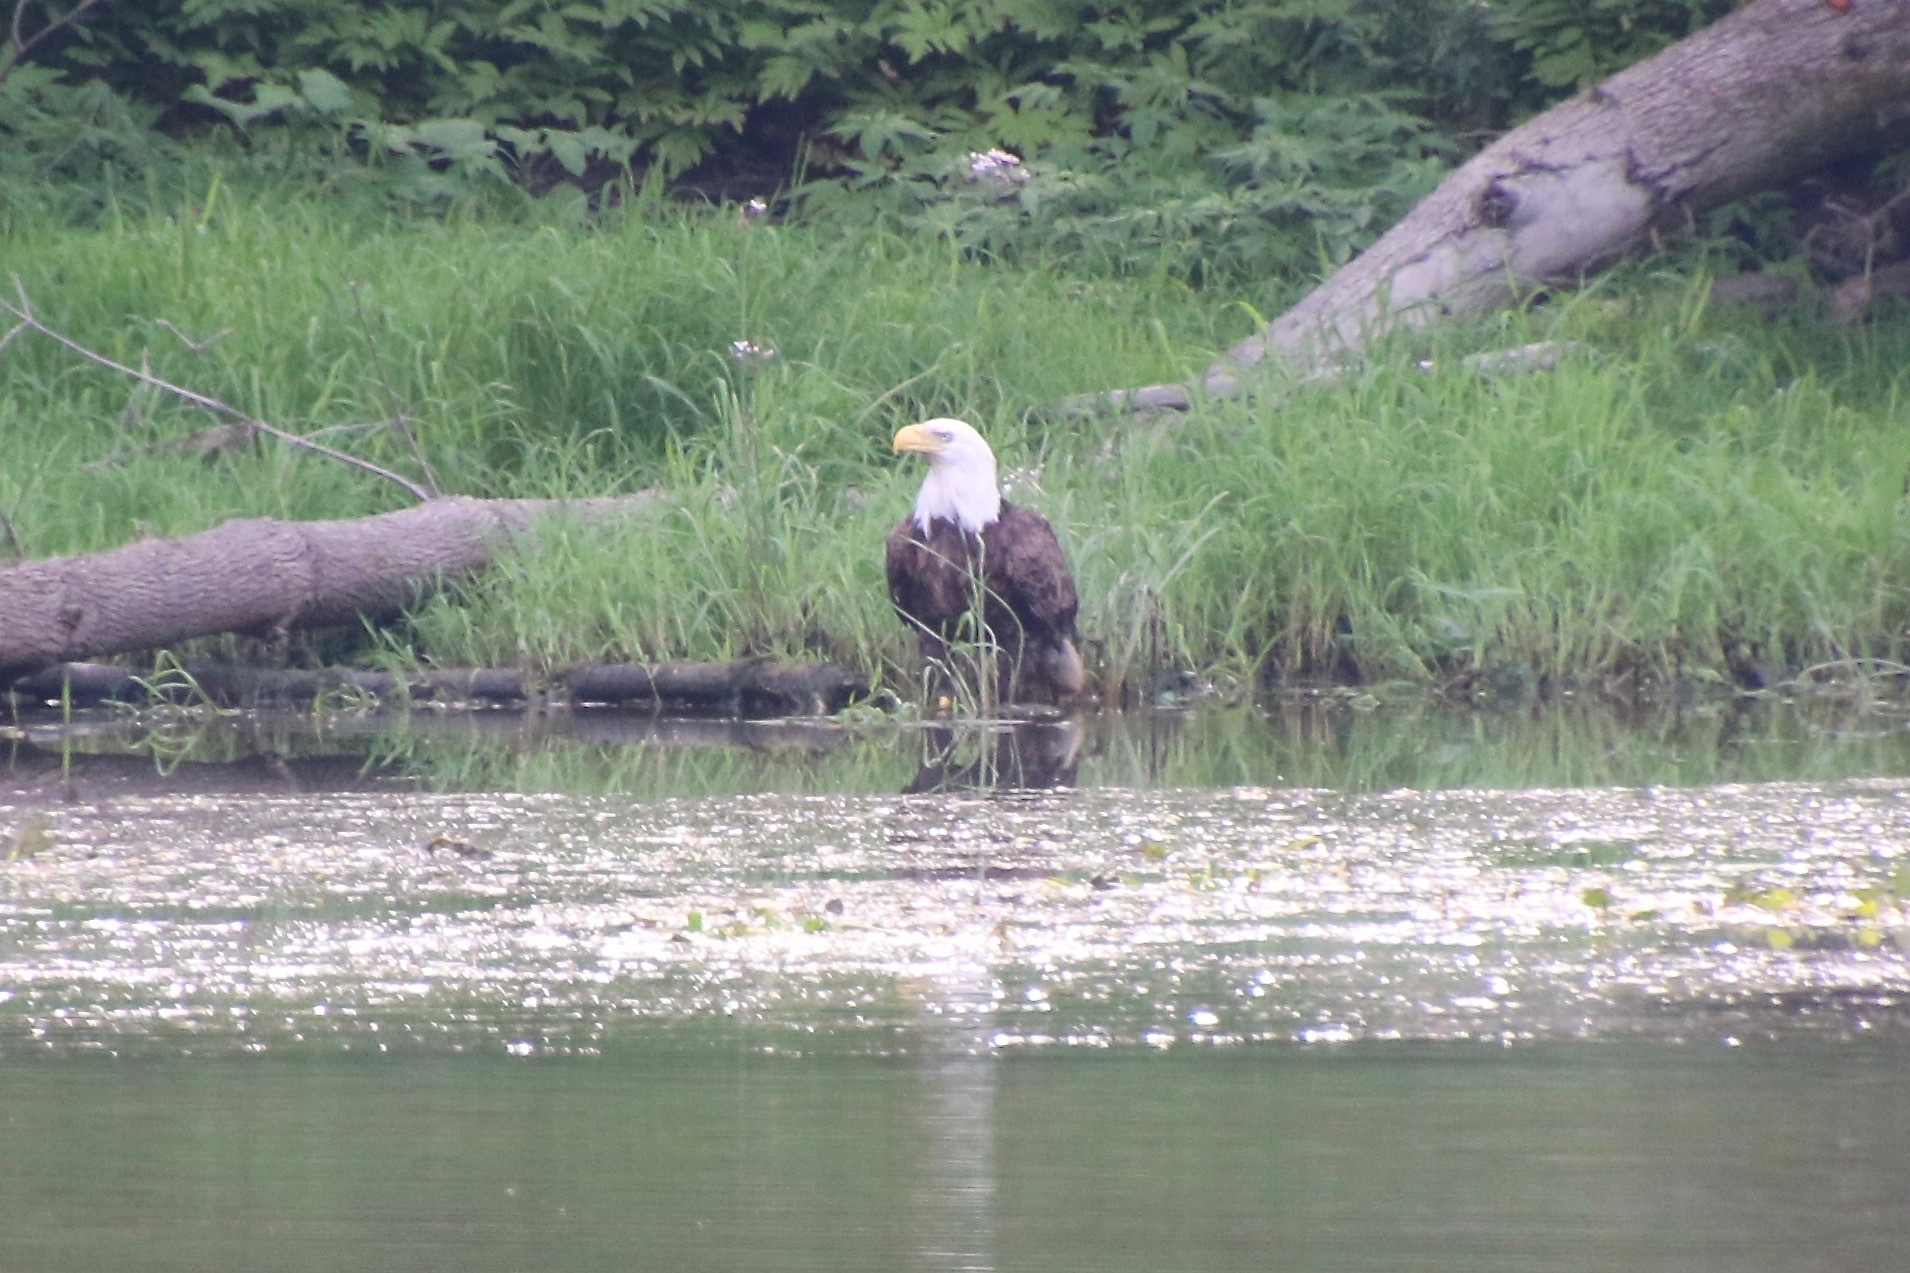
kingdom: Animalia
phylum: Chordata
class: Aves
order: Accipitriformes
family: Accipitridae
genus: Haliaeetus
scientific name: Haliaeetus leucocephalus
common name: Bald eagle
